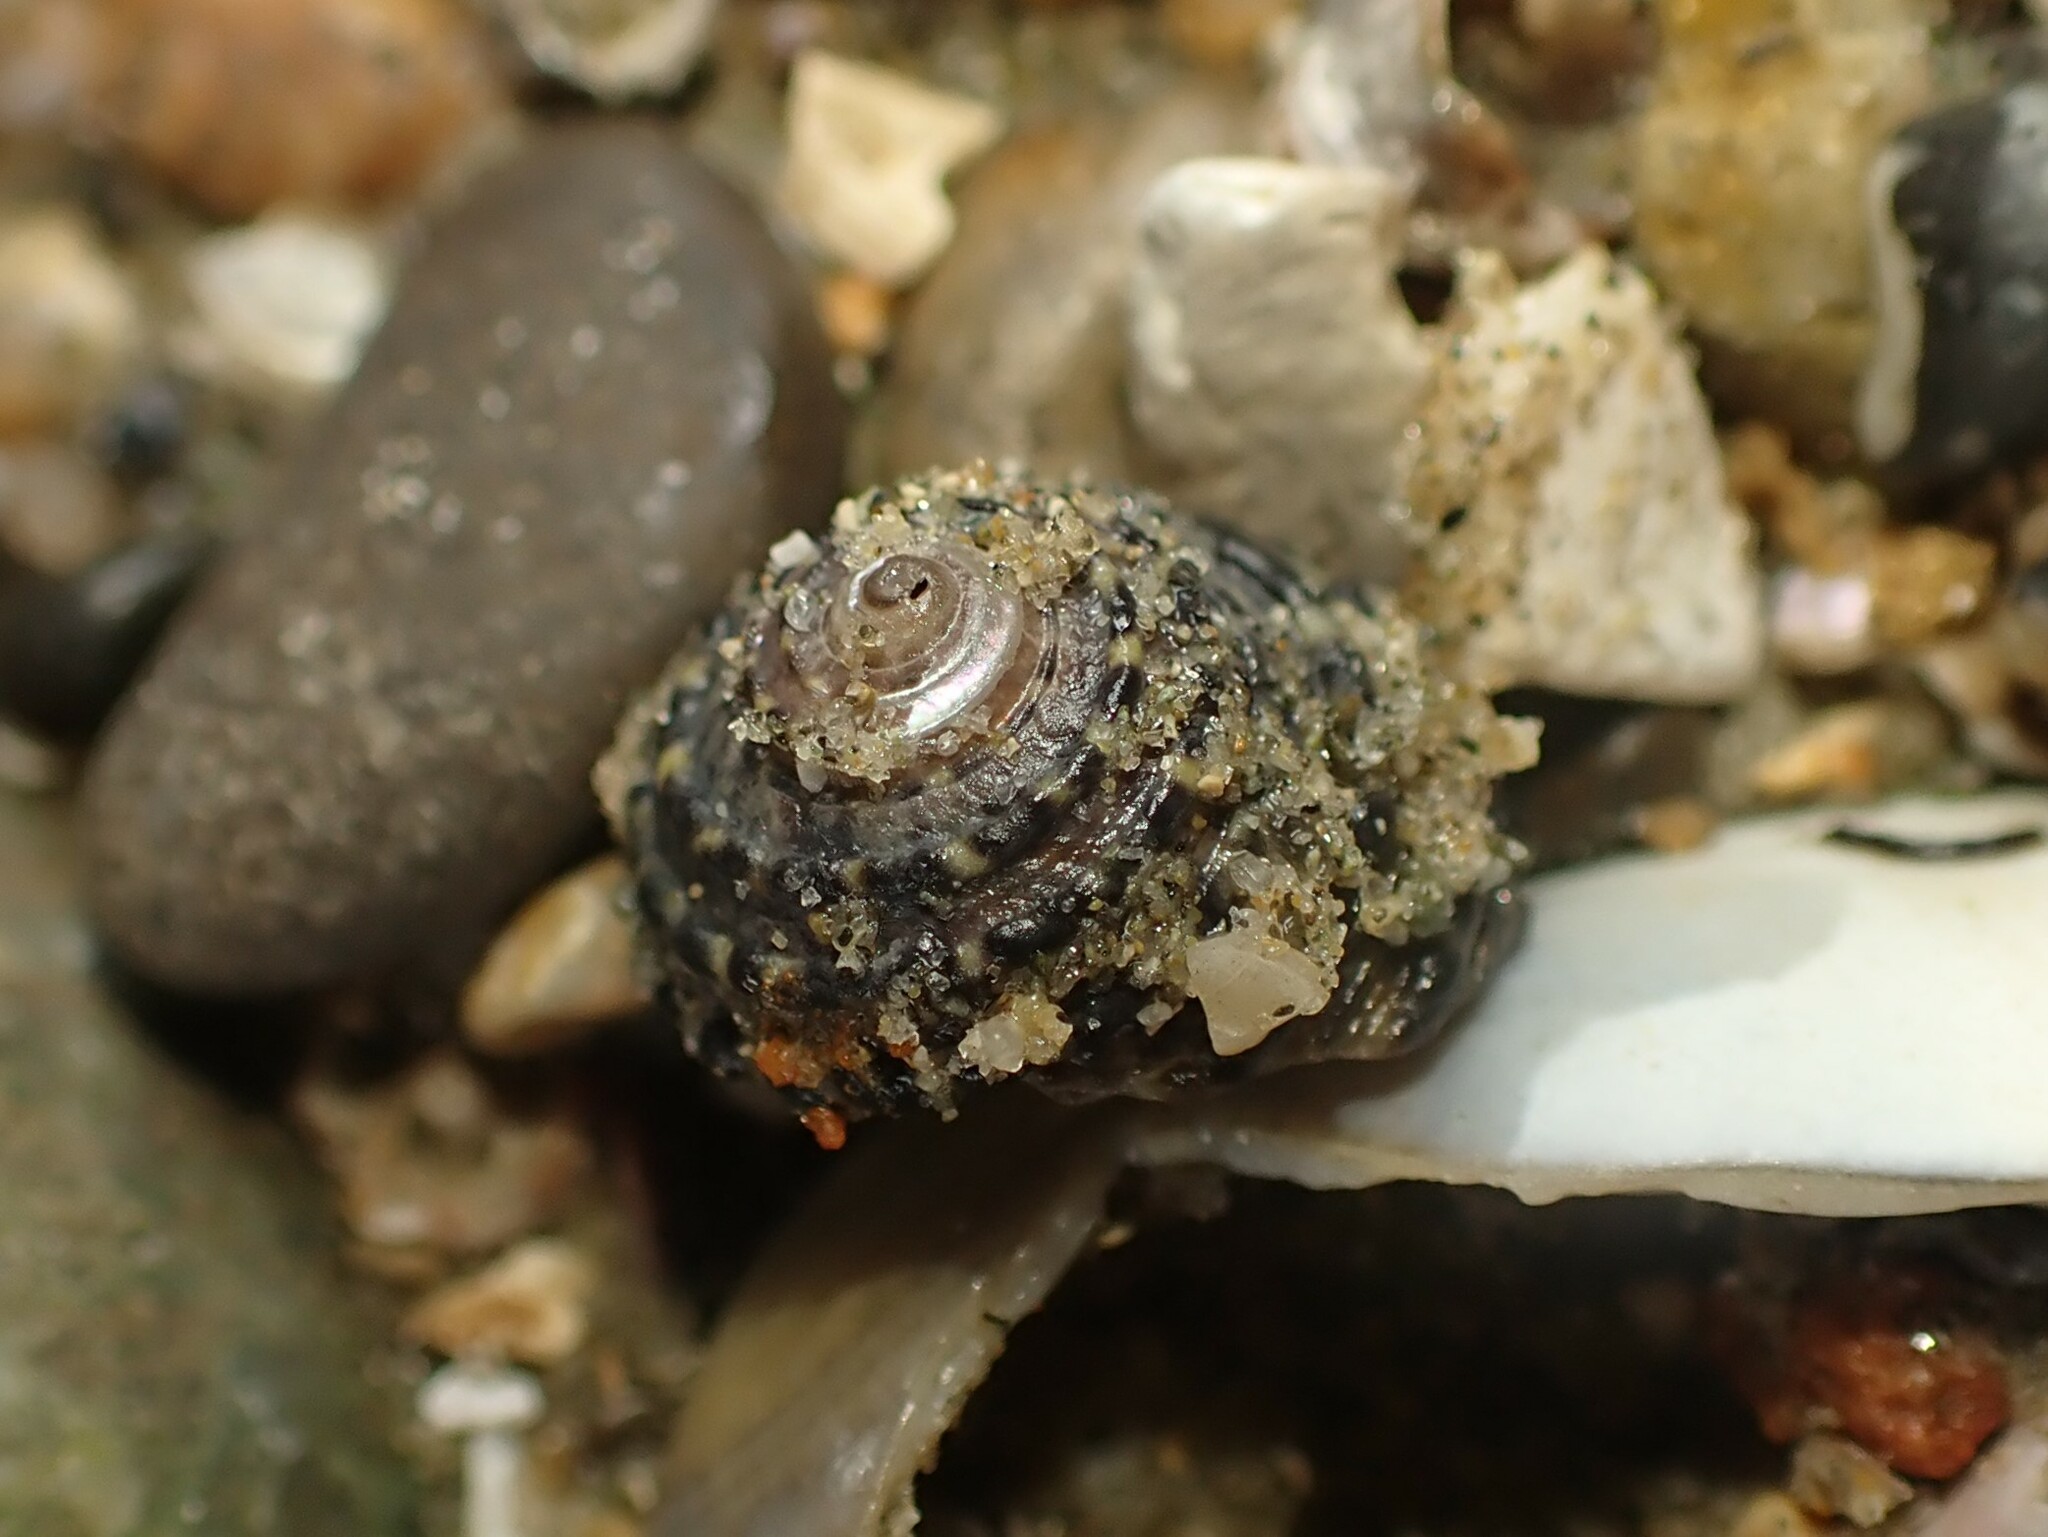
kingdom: Animalia
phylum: Mollusca
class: Gastropoda
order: Trochida
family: Trochidae
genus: Diloma
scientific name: Diloma bicanaliculatum
